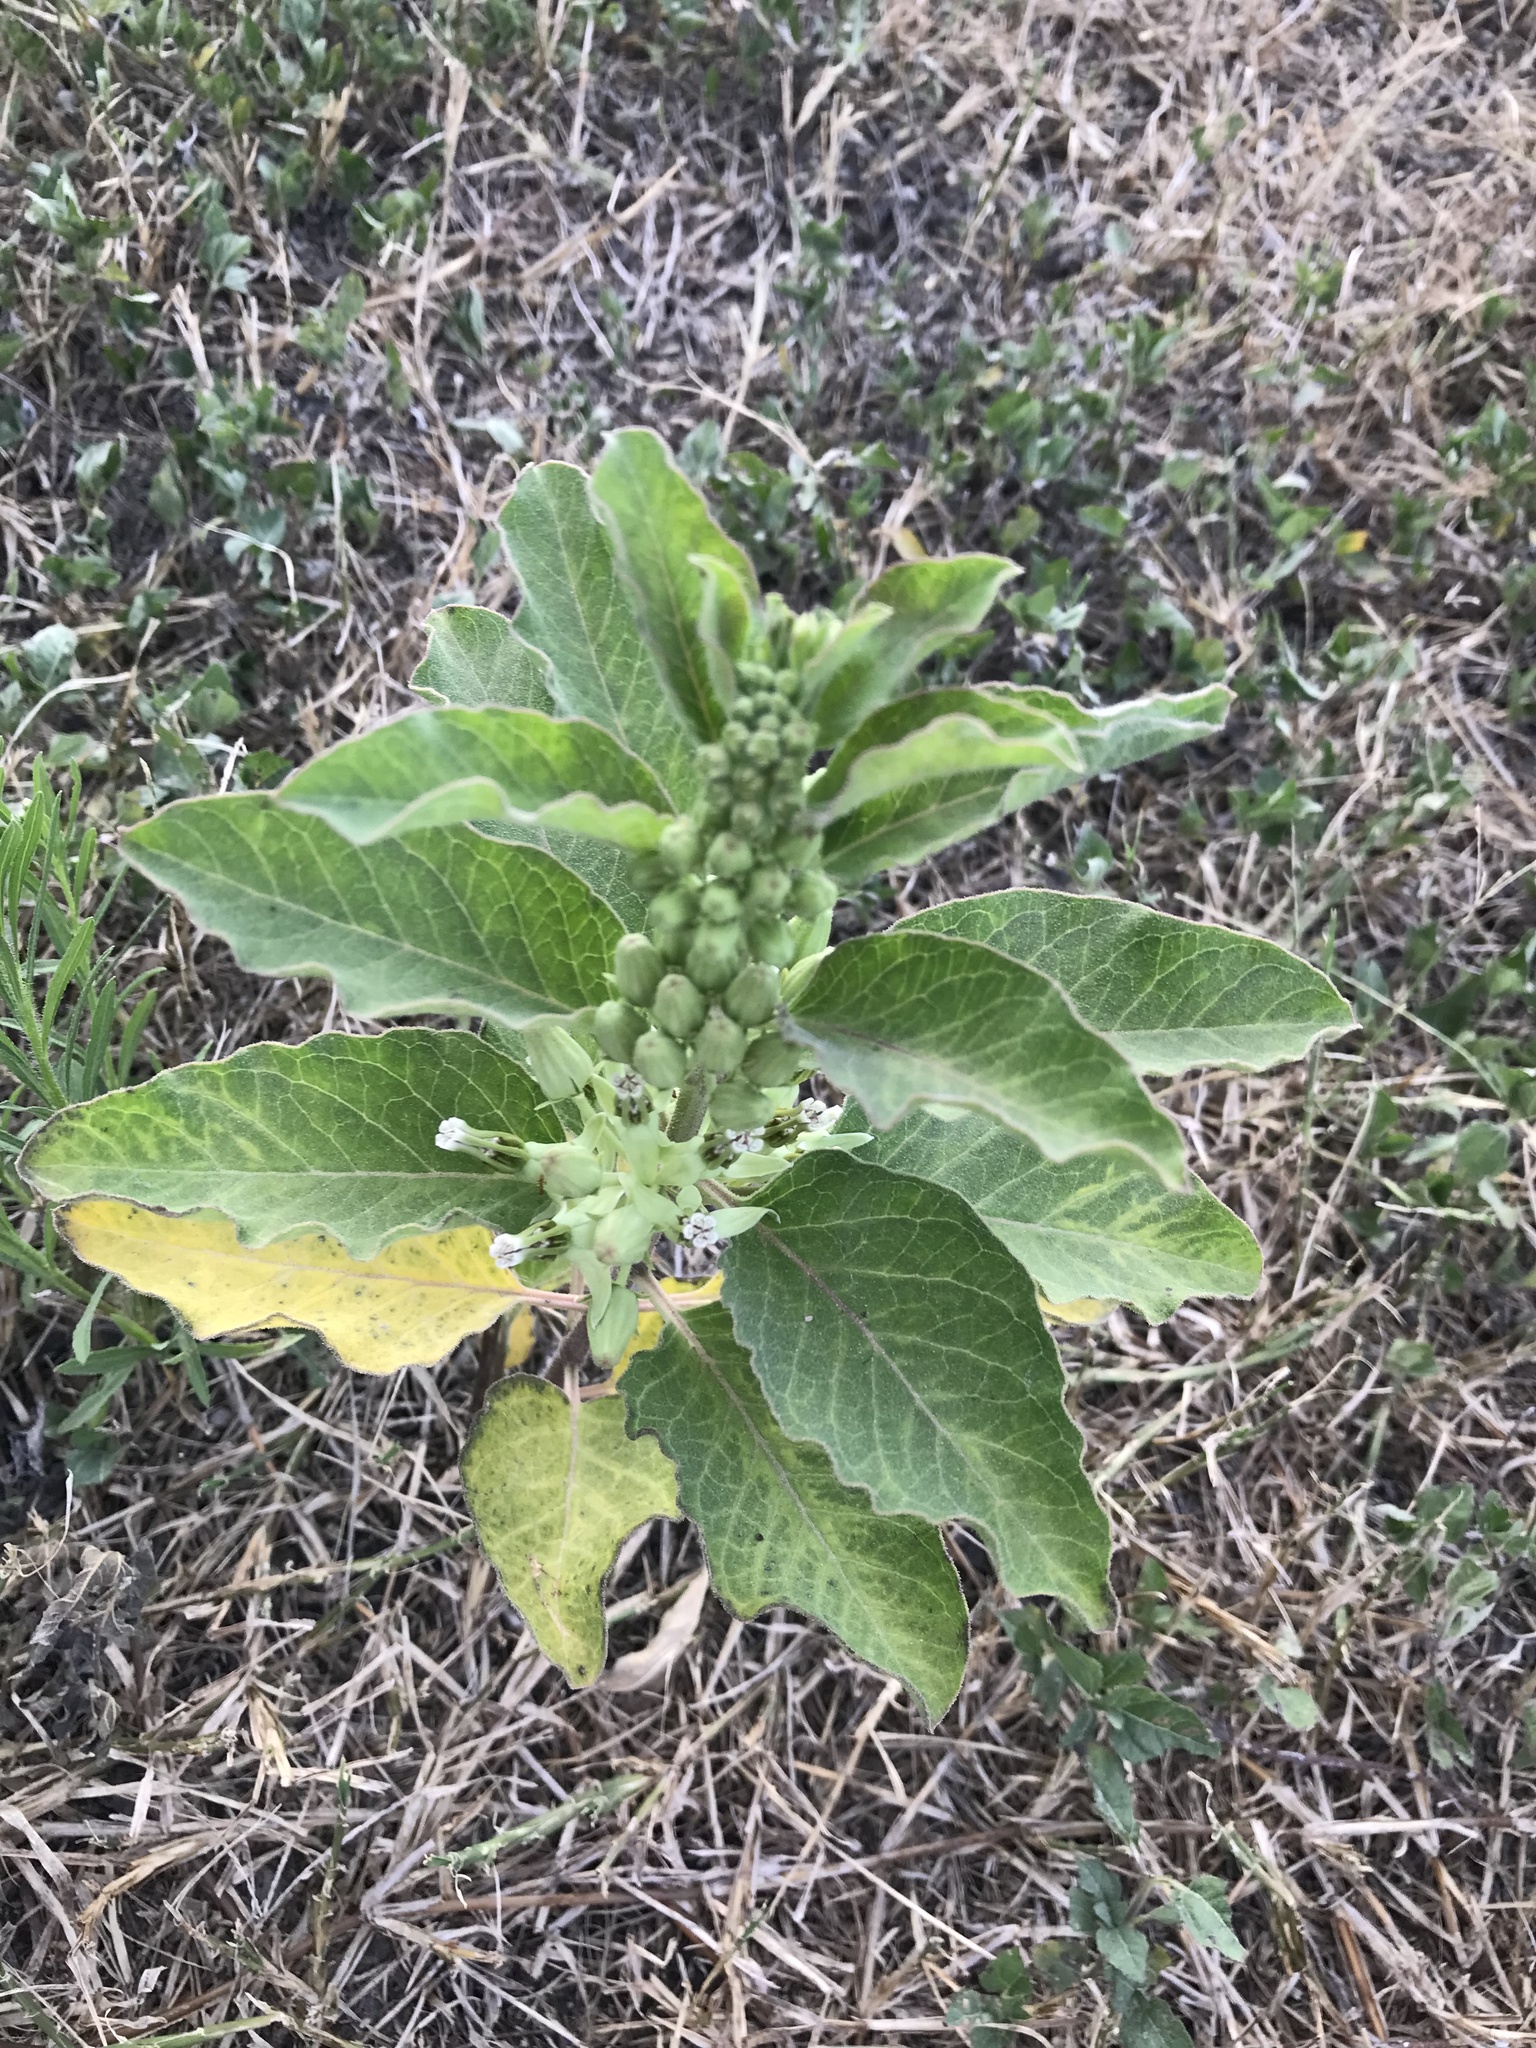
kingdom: Plantae
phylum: Tracheophyta
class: Magnoliopsida
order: Gentianales
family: Apocynaceae
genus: Asclepias
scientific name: Asclepias oenotheroides
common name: Zizotes milkweed
